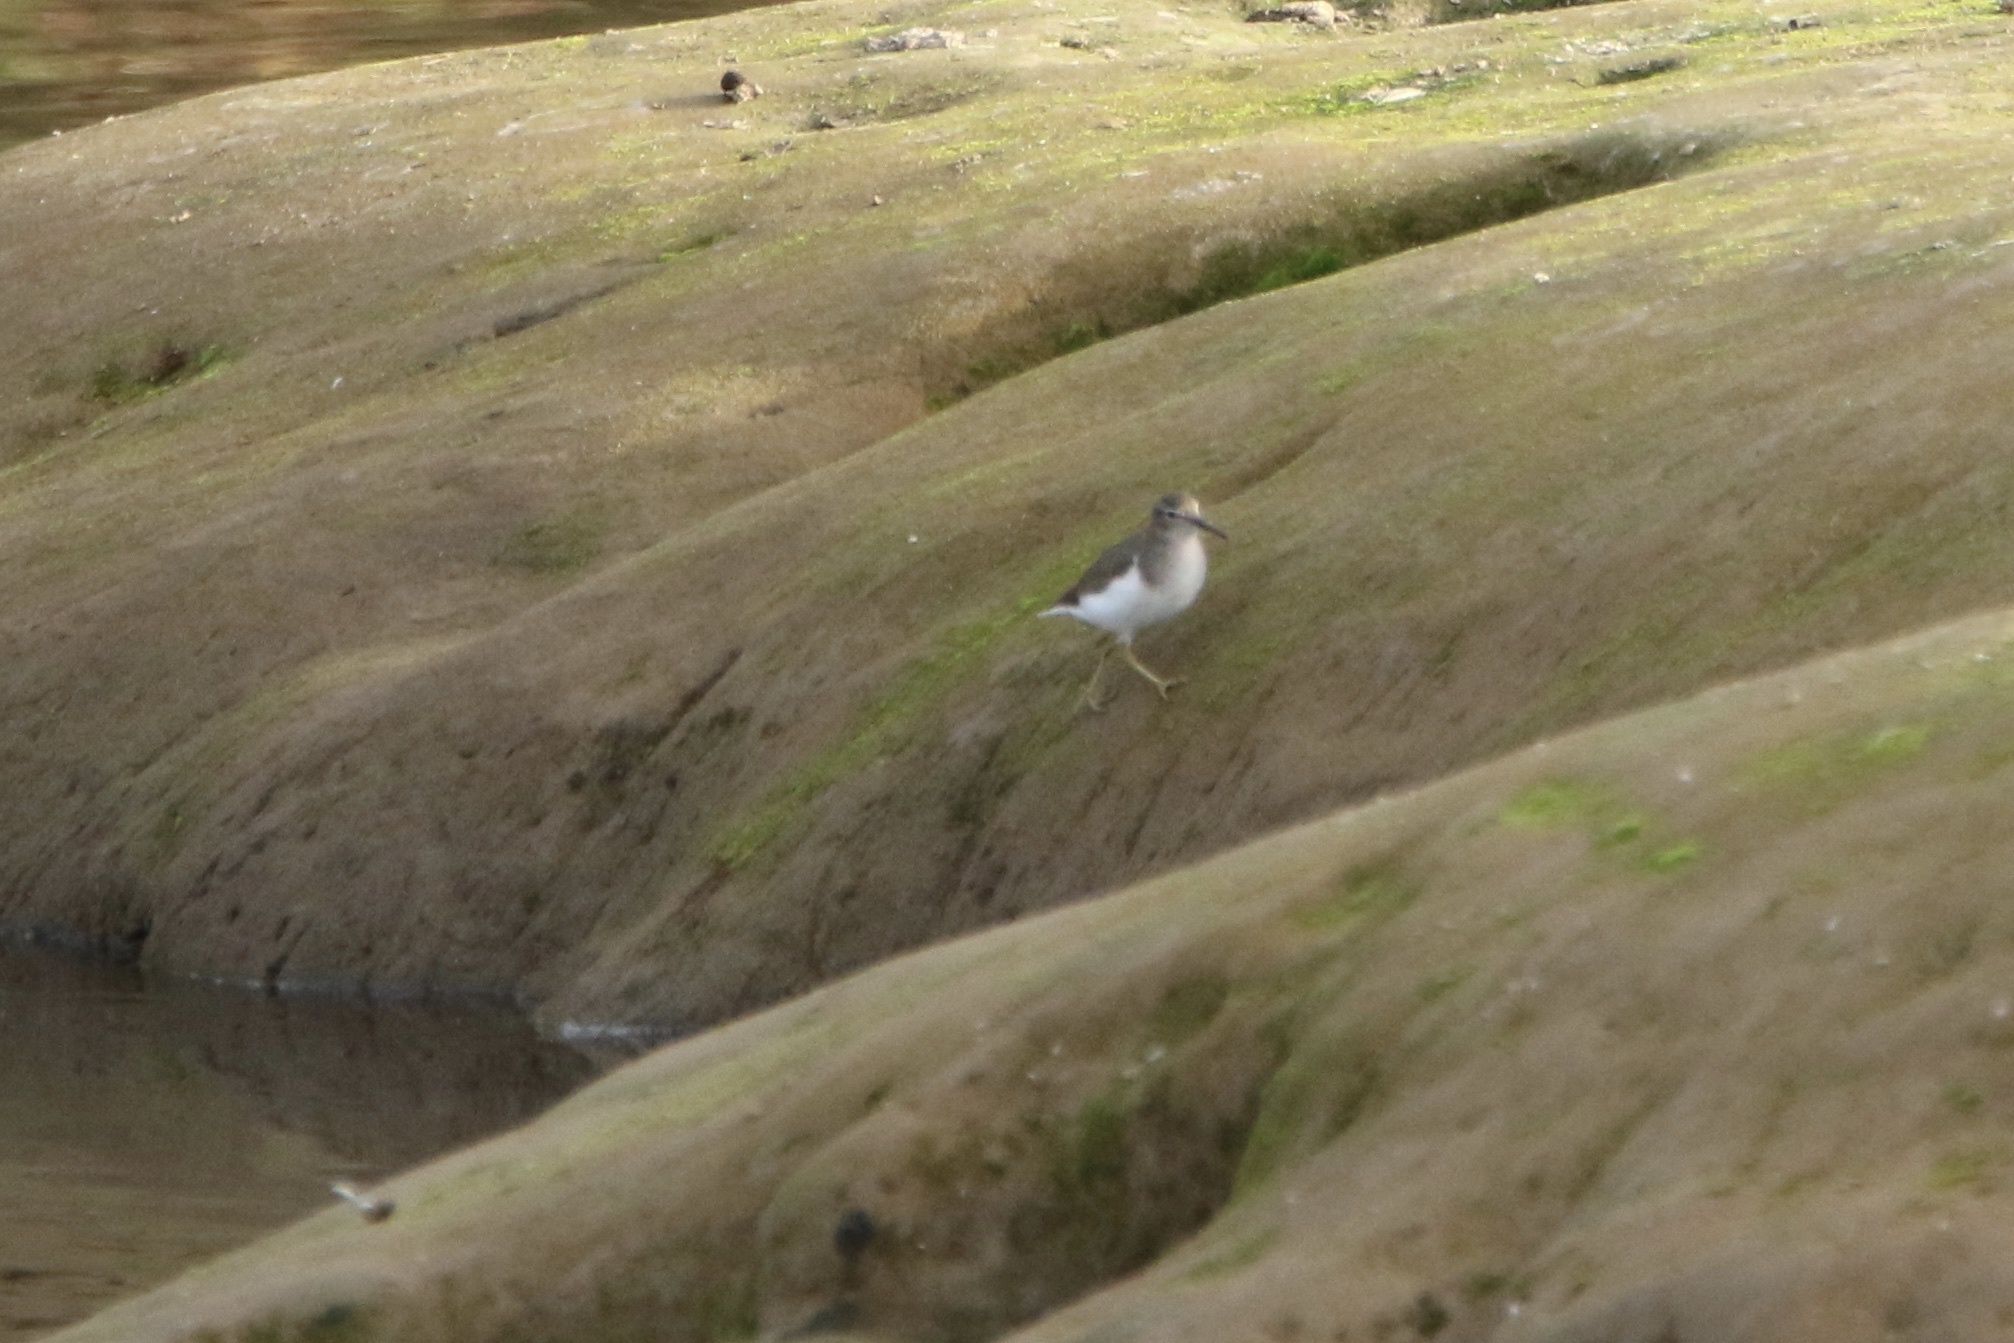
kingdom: Animalia
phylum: Chordata
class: Aves
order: Charadriiformes
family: Scolopacidae
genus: Actitis
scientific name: Actitis macularius
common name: Spotted sandpiper
